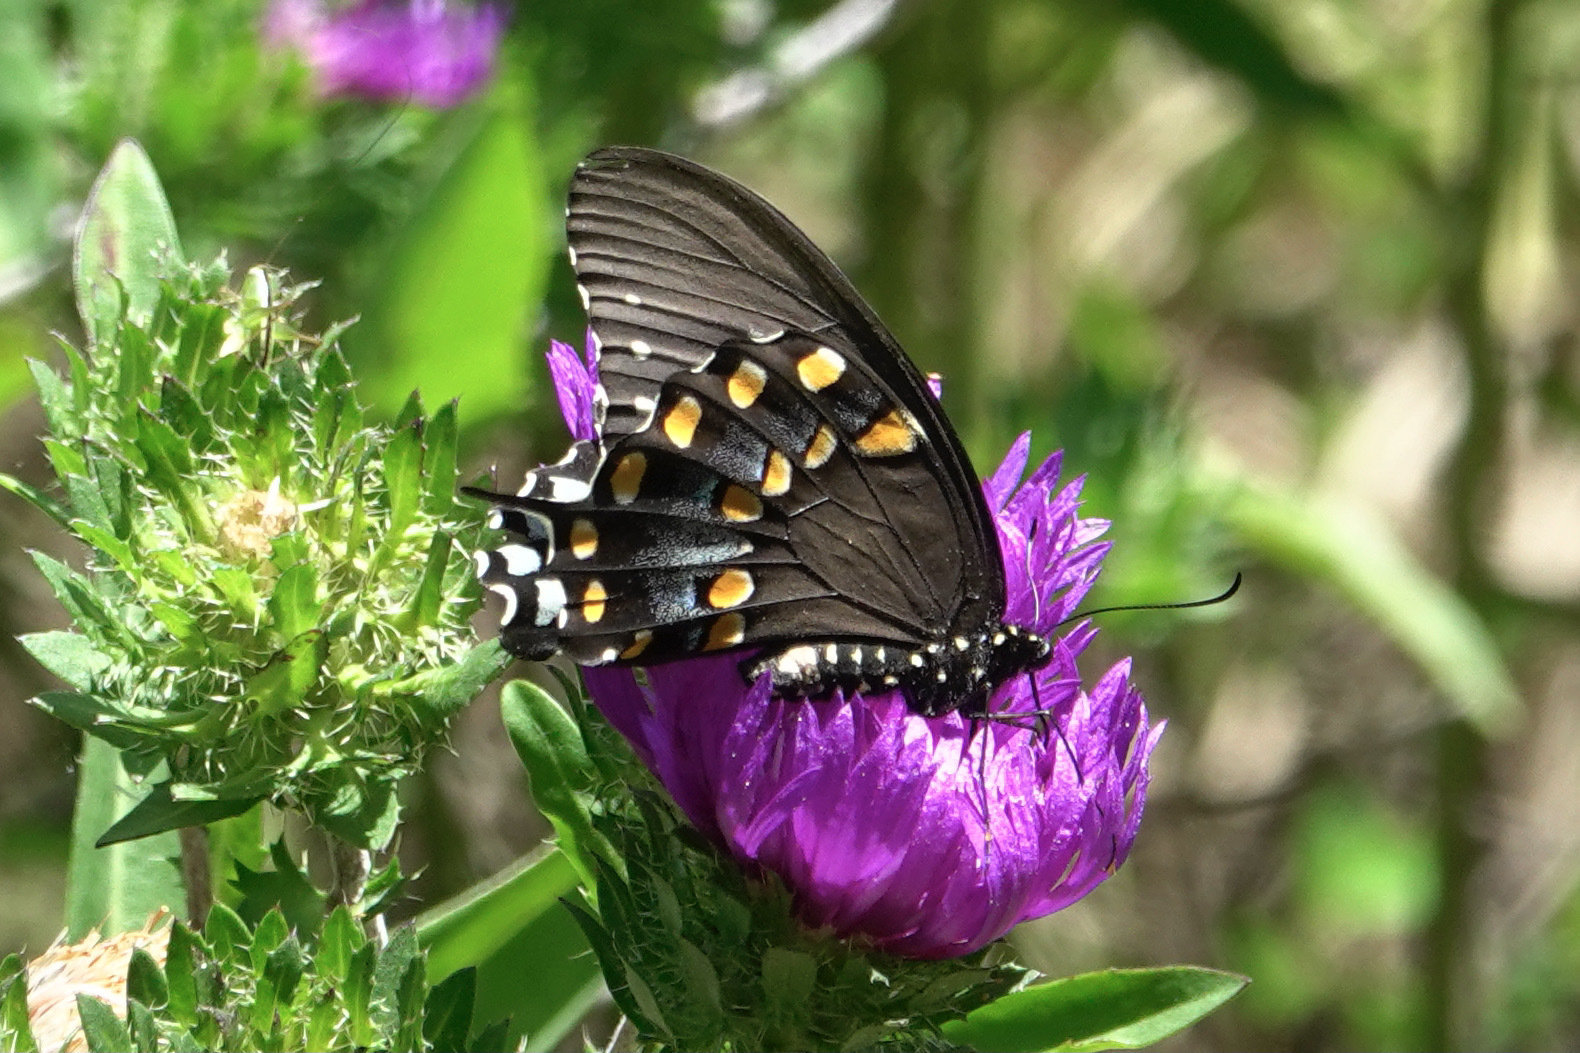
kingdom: Animalia
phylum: Arthropoda
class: Insecta
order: Lepidoptera
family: Papilionidae
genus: Papilio
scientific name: Papilio troilus
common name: Spicebush swallowtail
